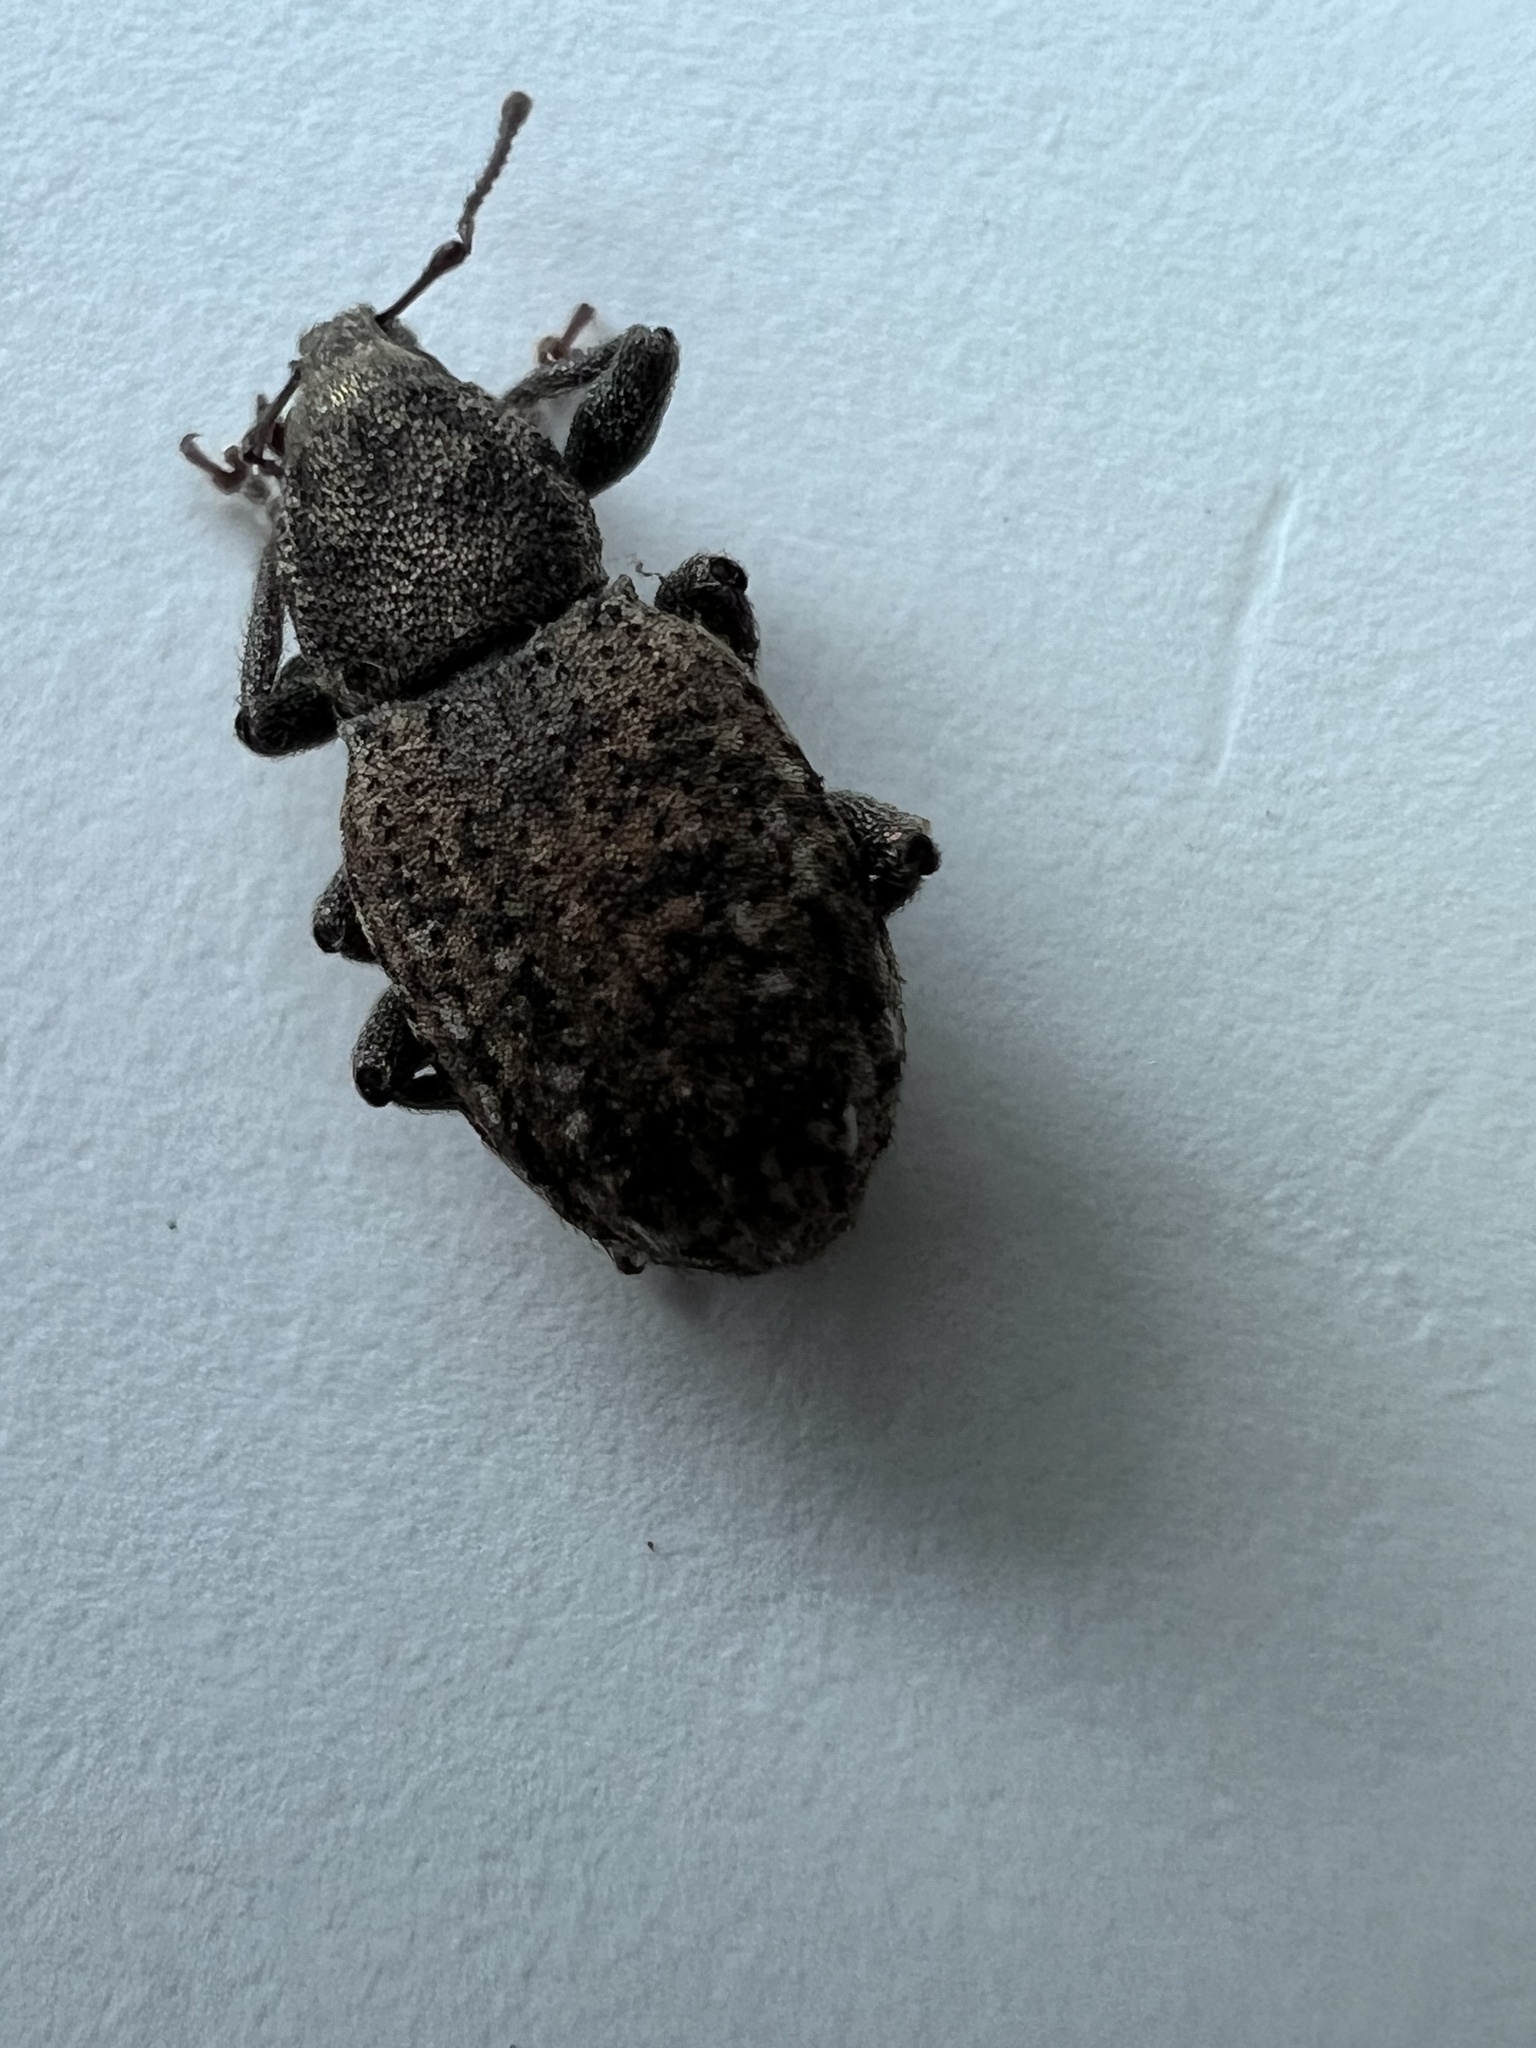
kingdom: Animalia
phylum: Arthropoda
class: Insecta
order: Coleoptera
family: Curculionidae
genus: Dyslobus
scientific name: Dyslobus granicollis
